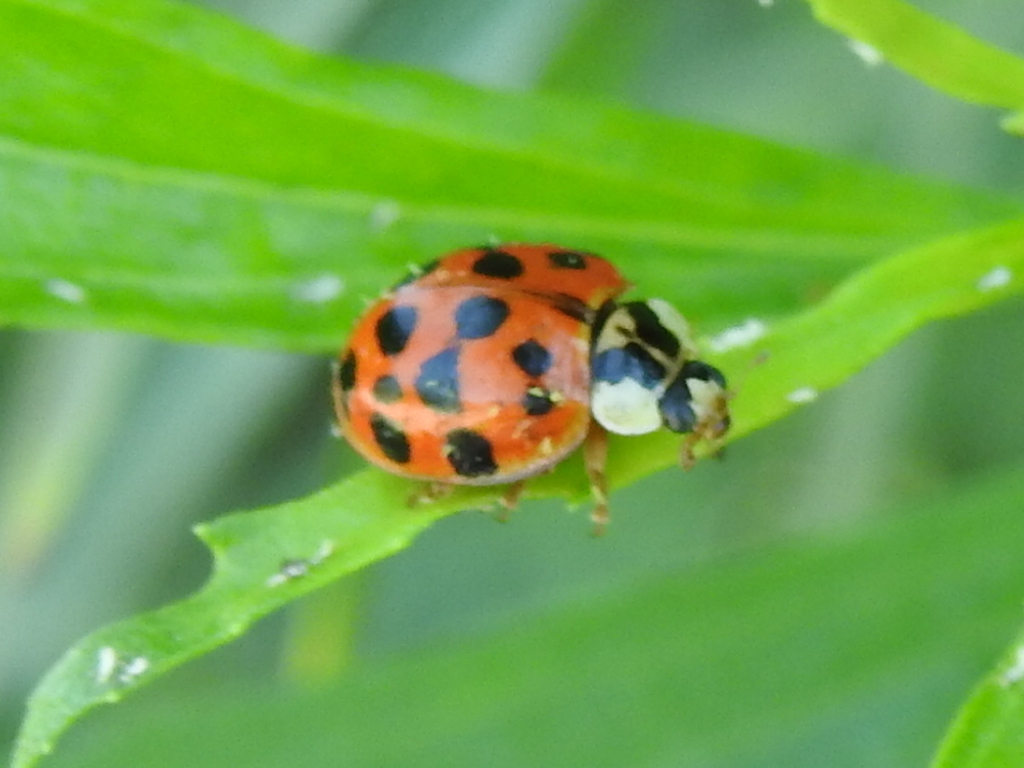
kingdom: Animalia
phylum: Arthropoda
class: Insecta
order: Coleoptera
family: Coccinellidae
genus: Harmonia
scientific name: Harmonia axyridis
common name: Harlequin ladybird
